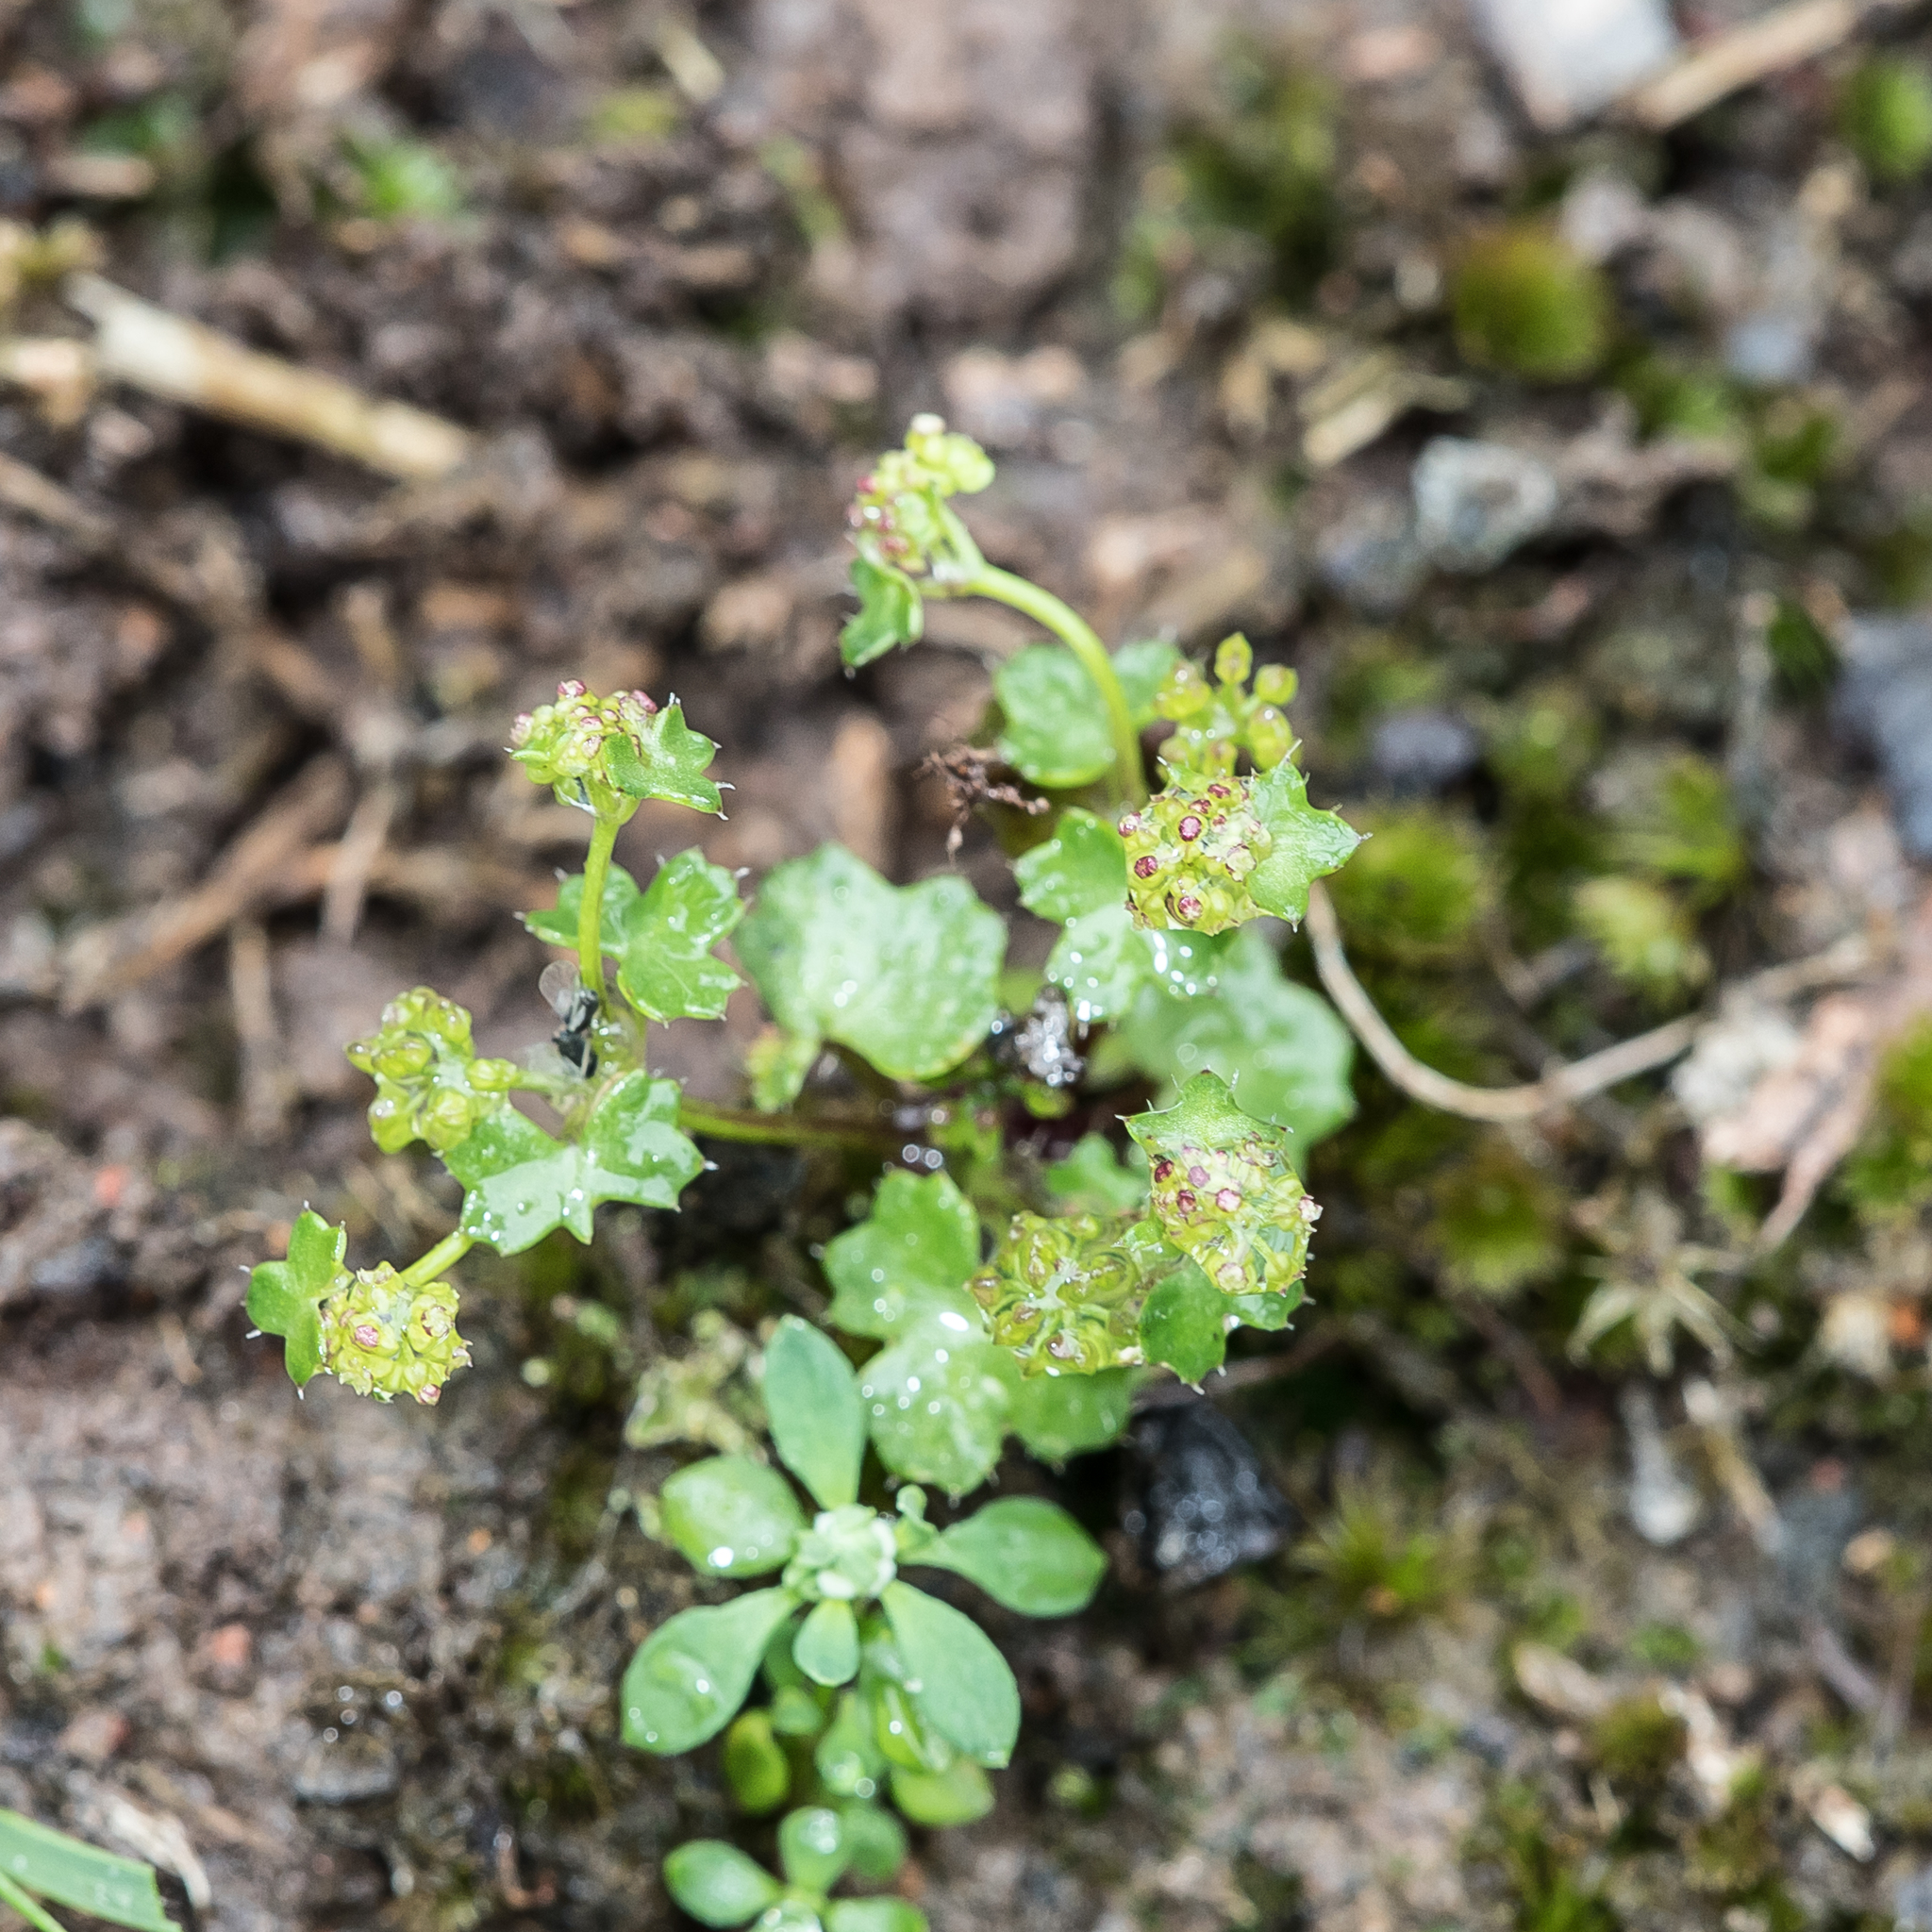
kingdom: Plantae
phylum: Tracheophyta
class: Magnoliopsida
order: Apiales
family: Araliaceae
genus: Hydrocotyle
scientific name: Hydrocotyle callicarpa
